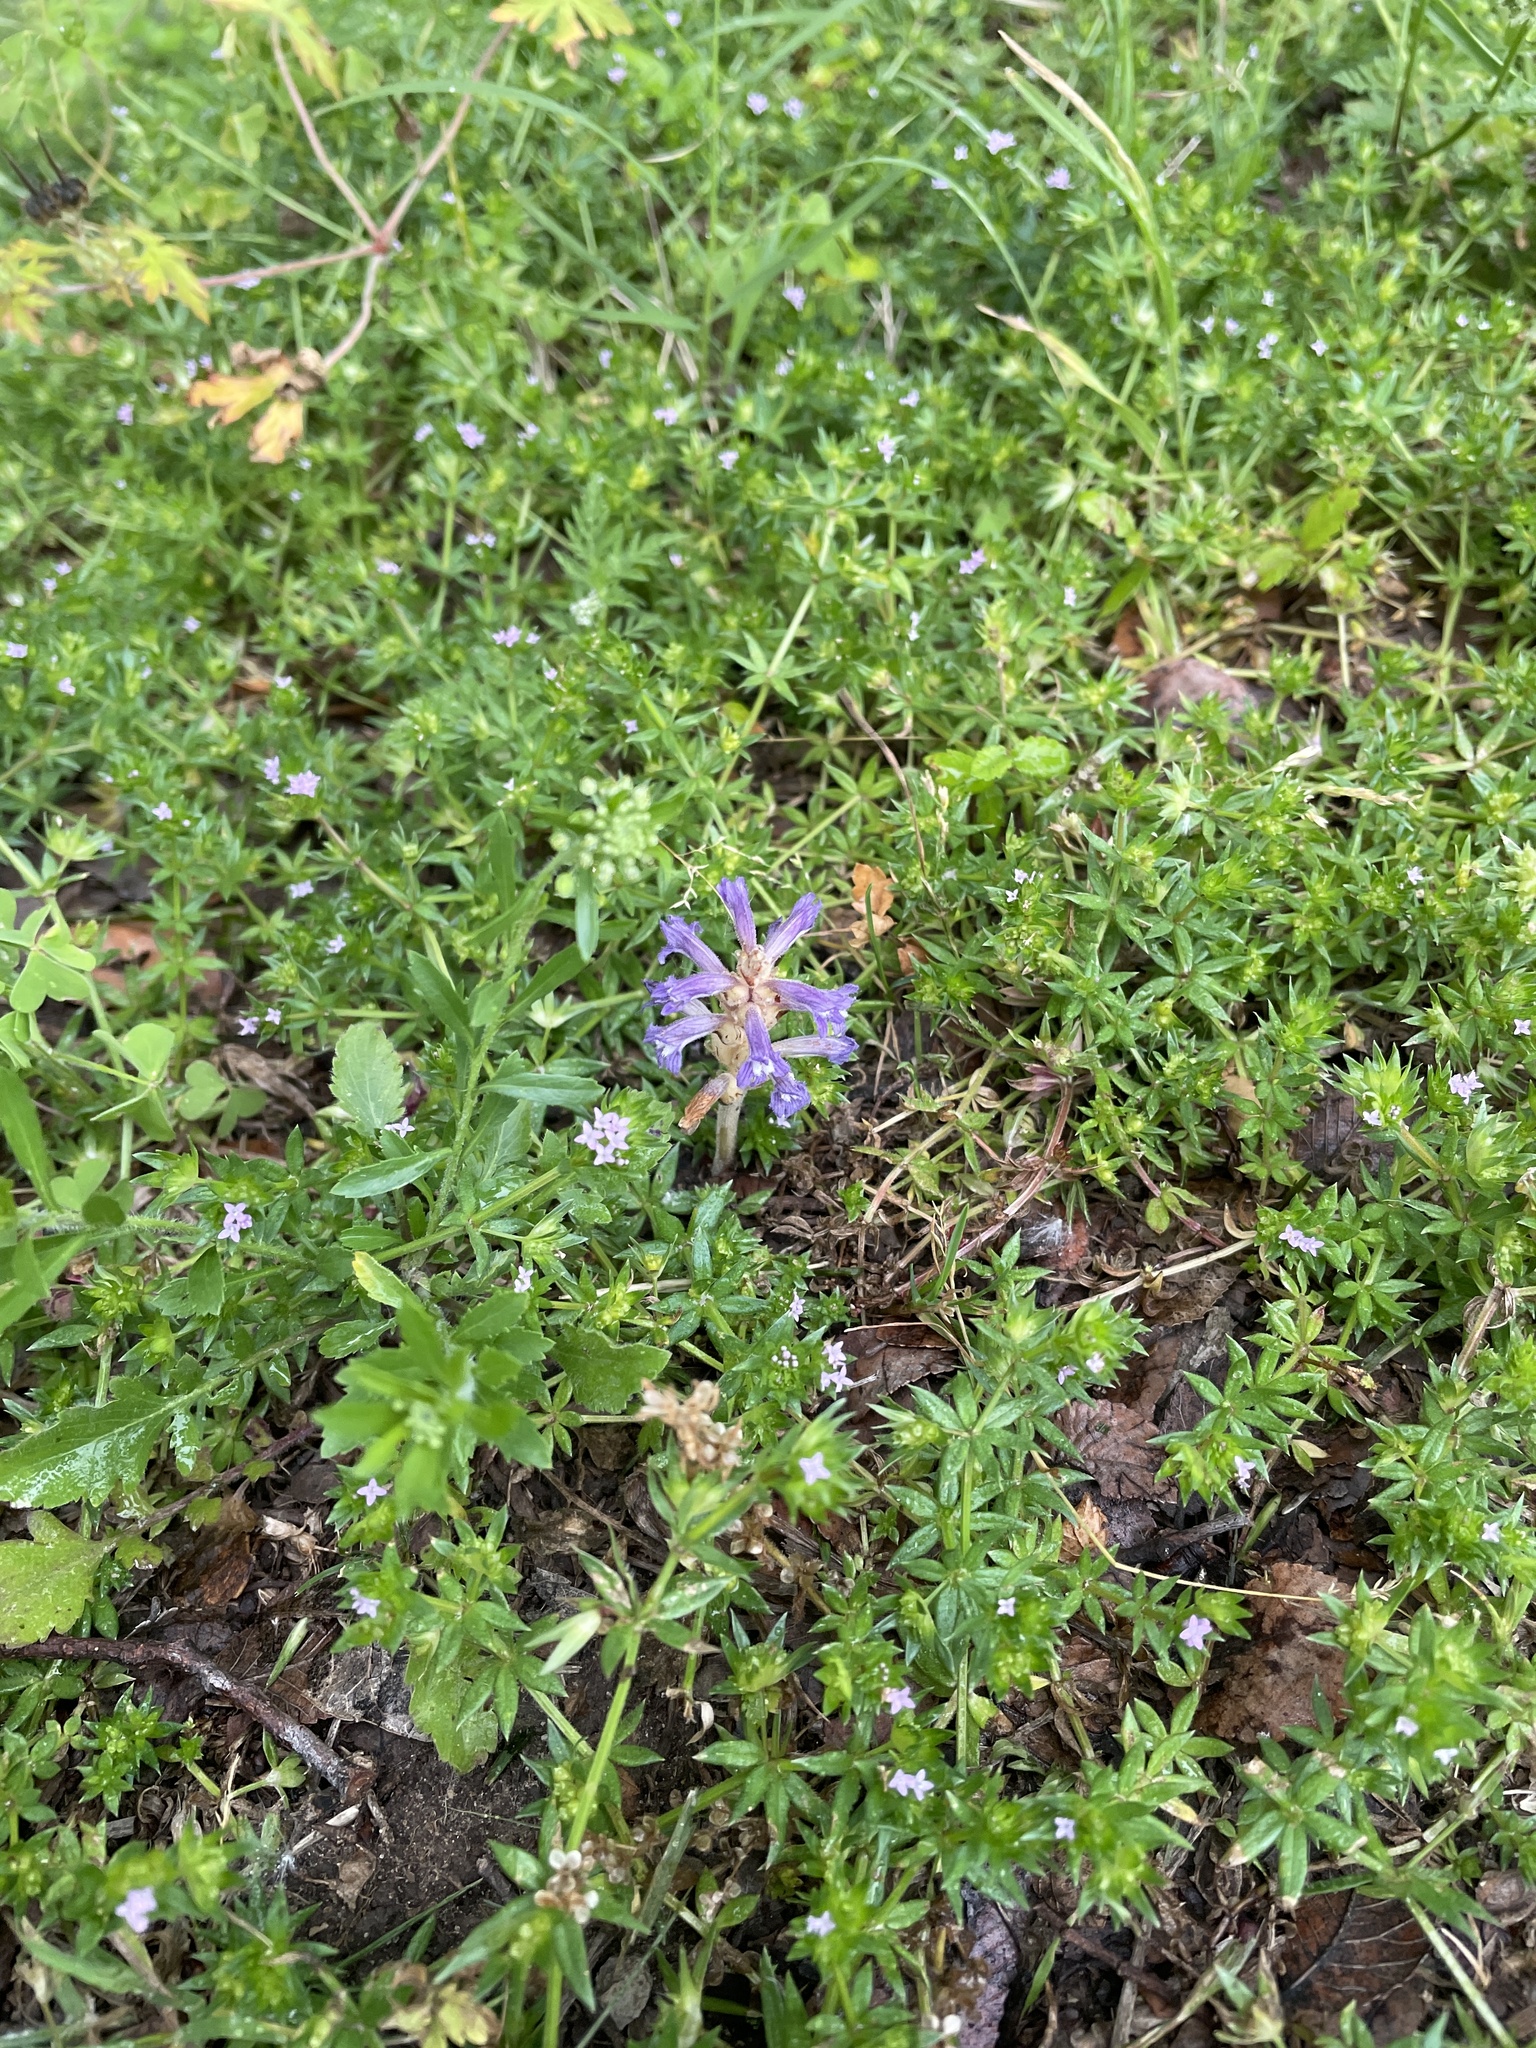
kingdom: Plantae
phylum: Tracheophyta
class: Magnoliopsida
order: Lamiales
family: Orobanchaceae
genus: Phelipanche
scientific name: Phelipanche mutelii
